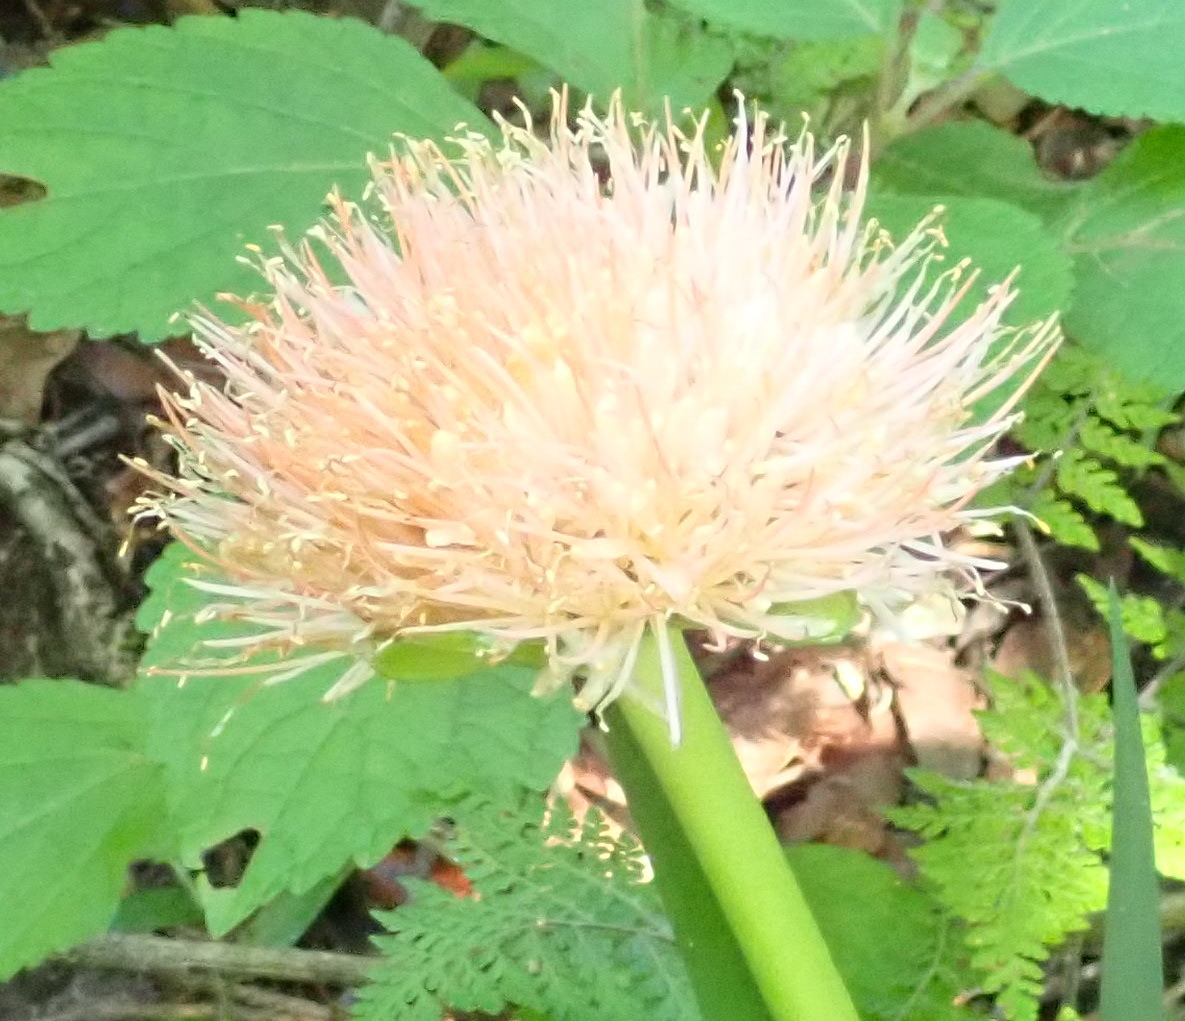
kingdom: Plantae
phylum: Tracheophyta
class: Liliopsida
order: Asparagales
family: Amaryllidaceae
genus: Scadoxus
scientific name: Scadoxus puniceus
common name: Royal-paintbrush
